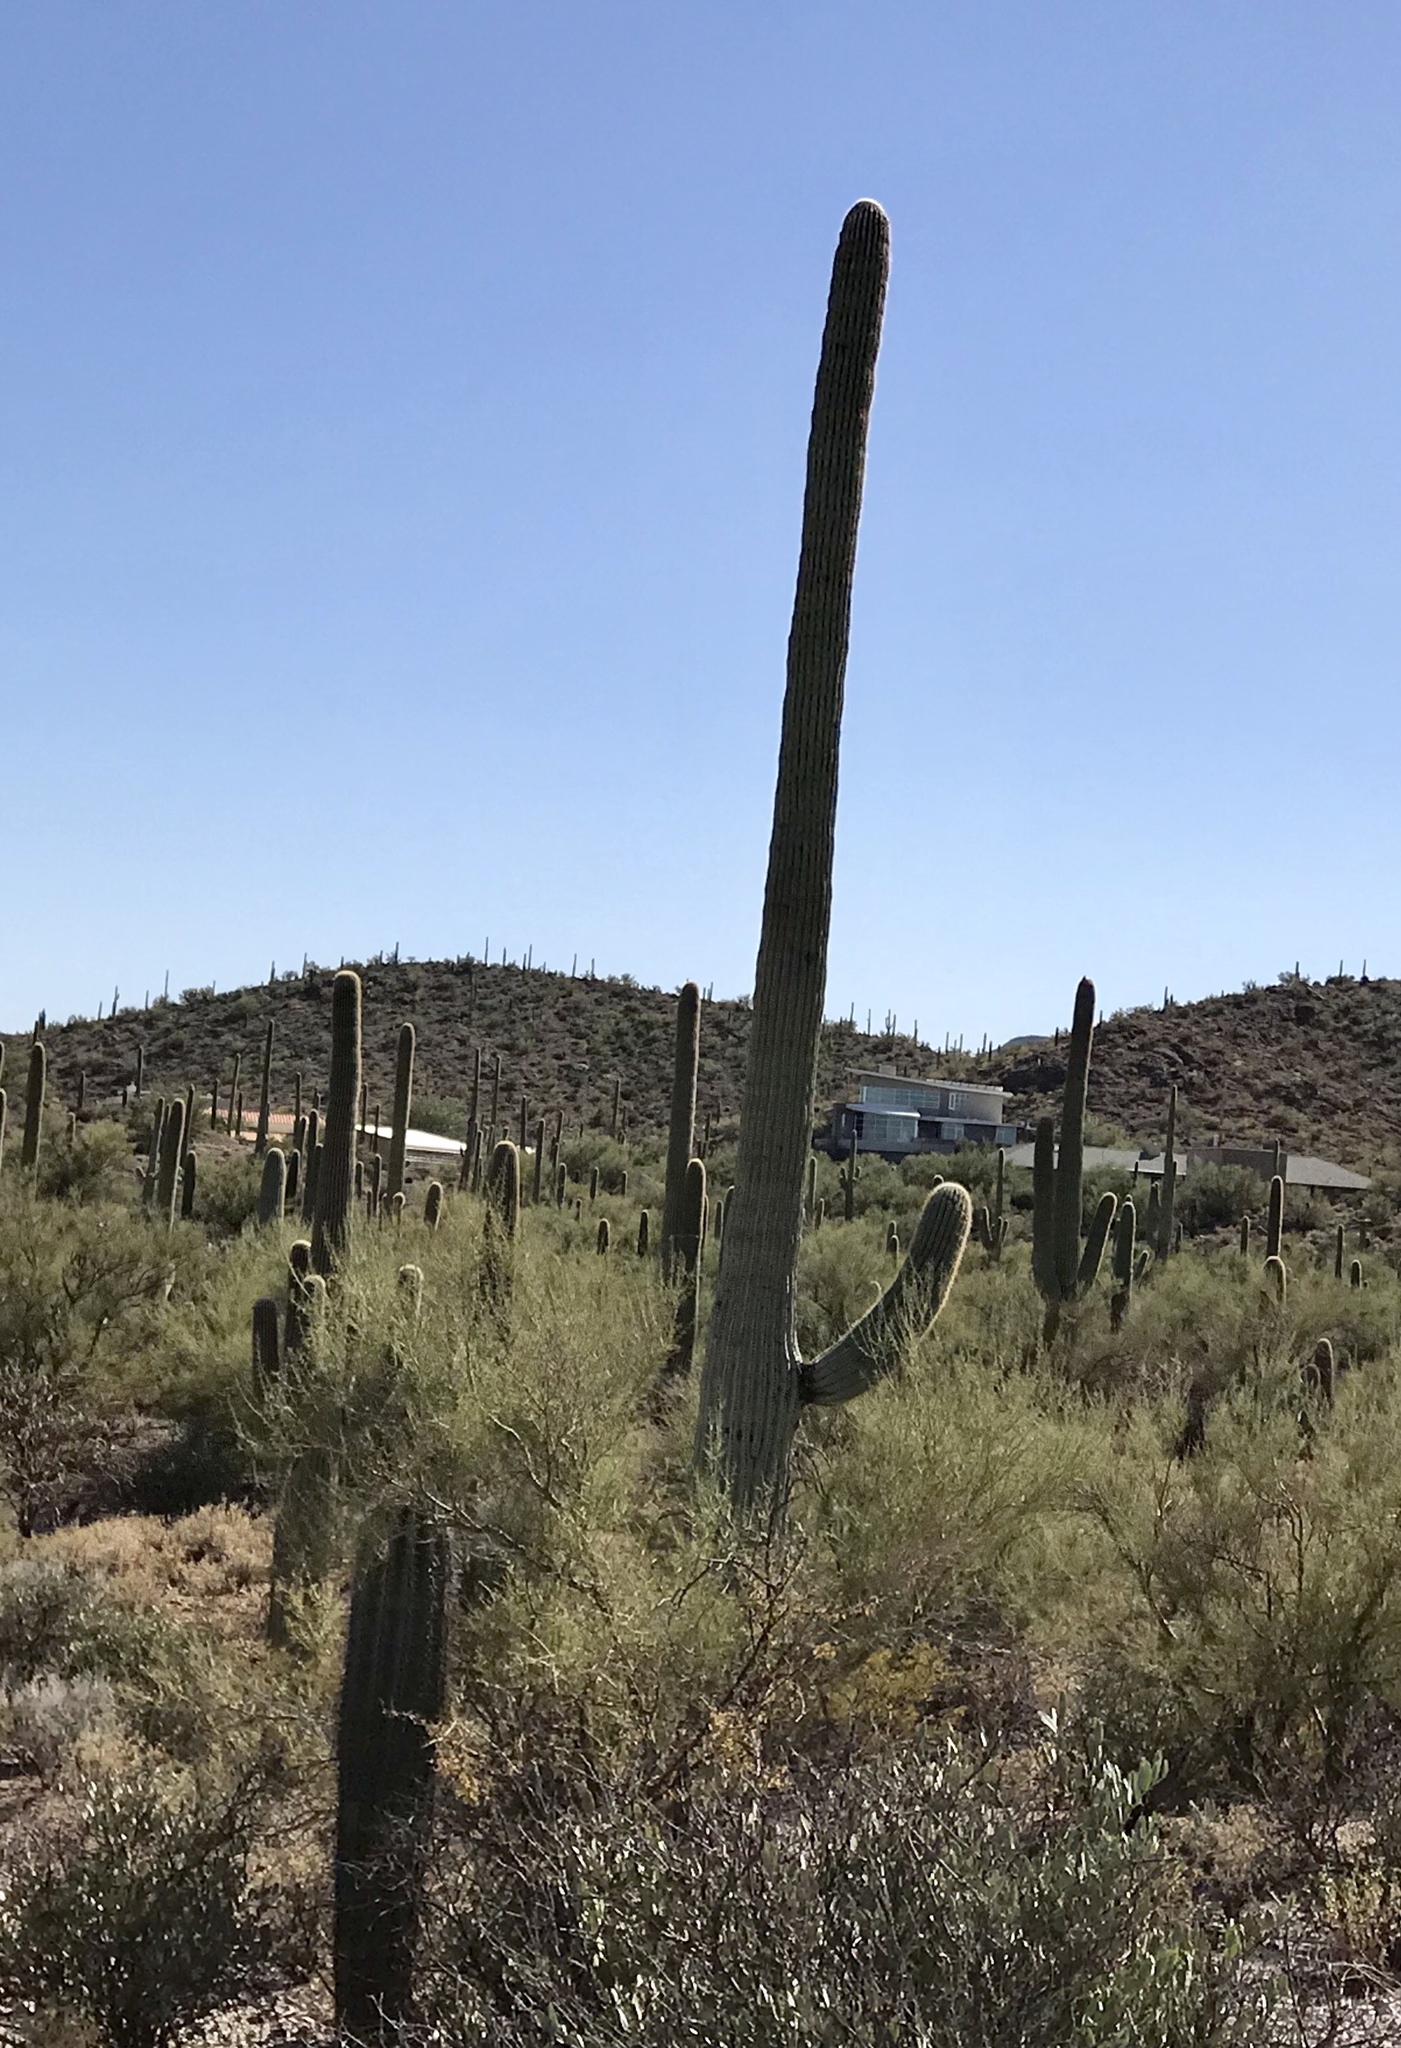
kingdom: Plantae
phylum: Tracheophyta
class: Magnoliopsida
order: Caryophyllales
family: Cactaceae
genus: Carnegiea
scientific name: Carnegiea gigantea
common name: Saguaro
